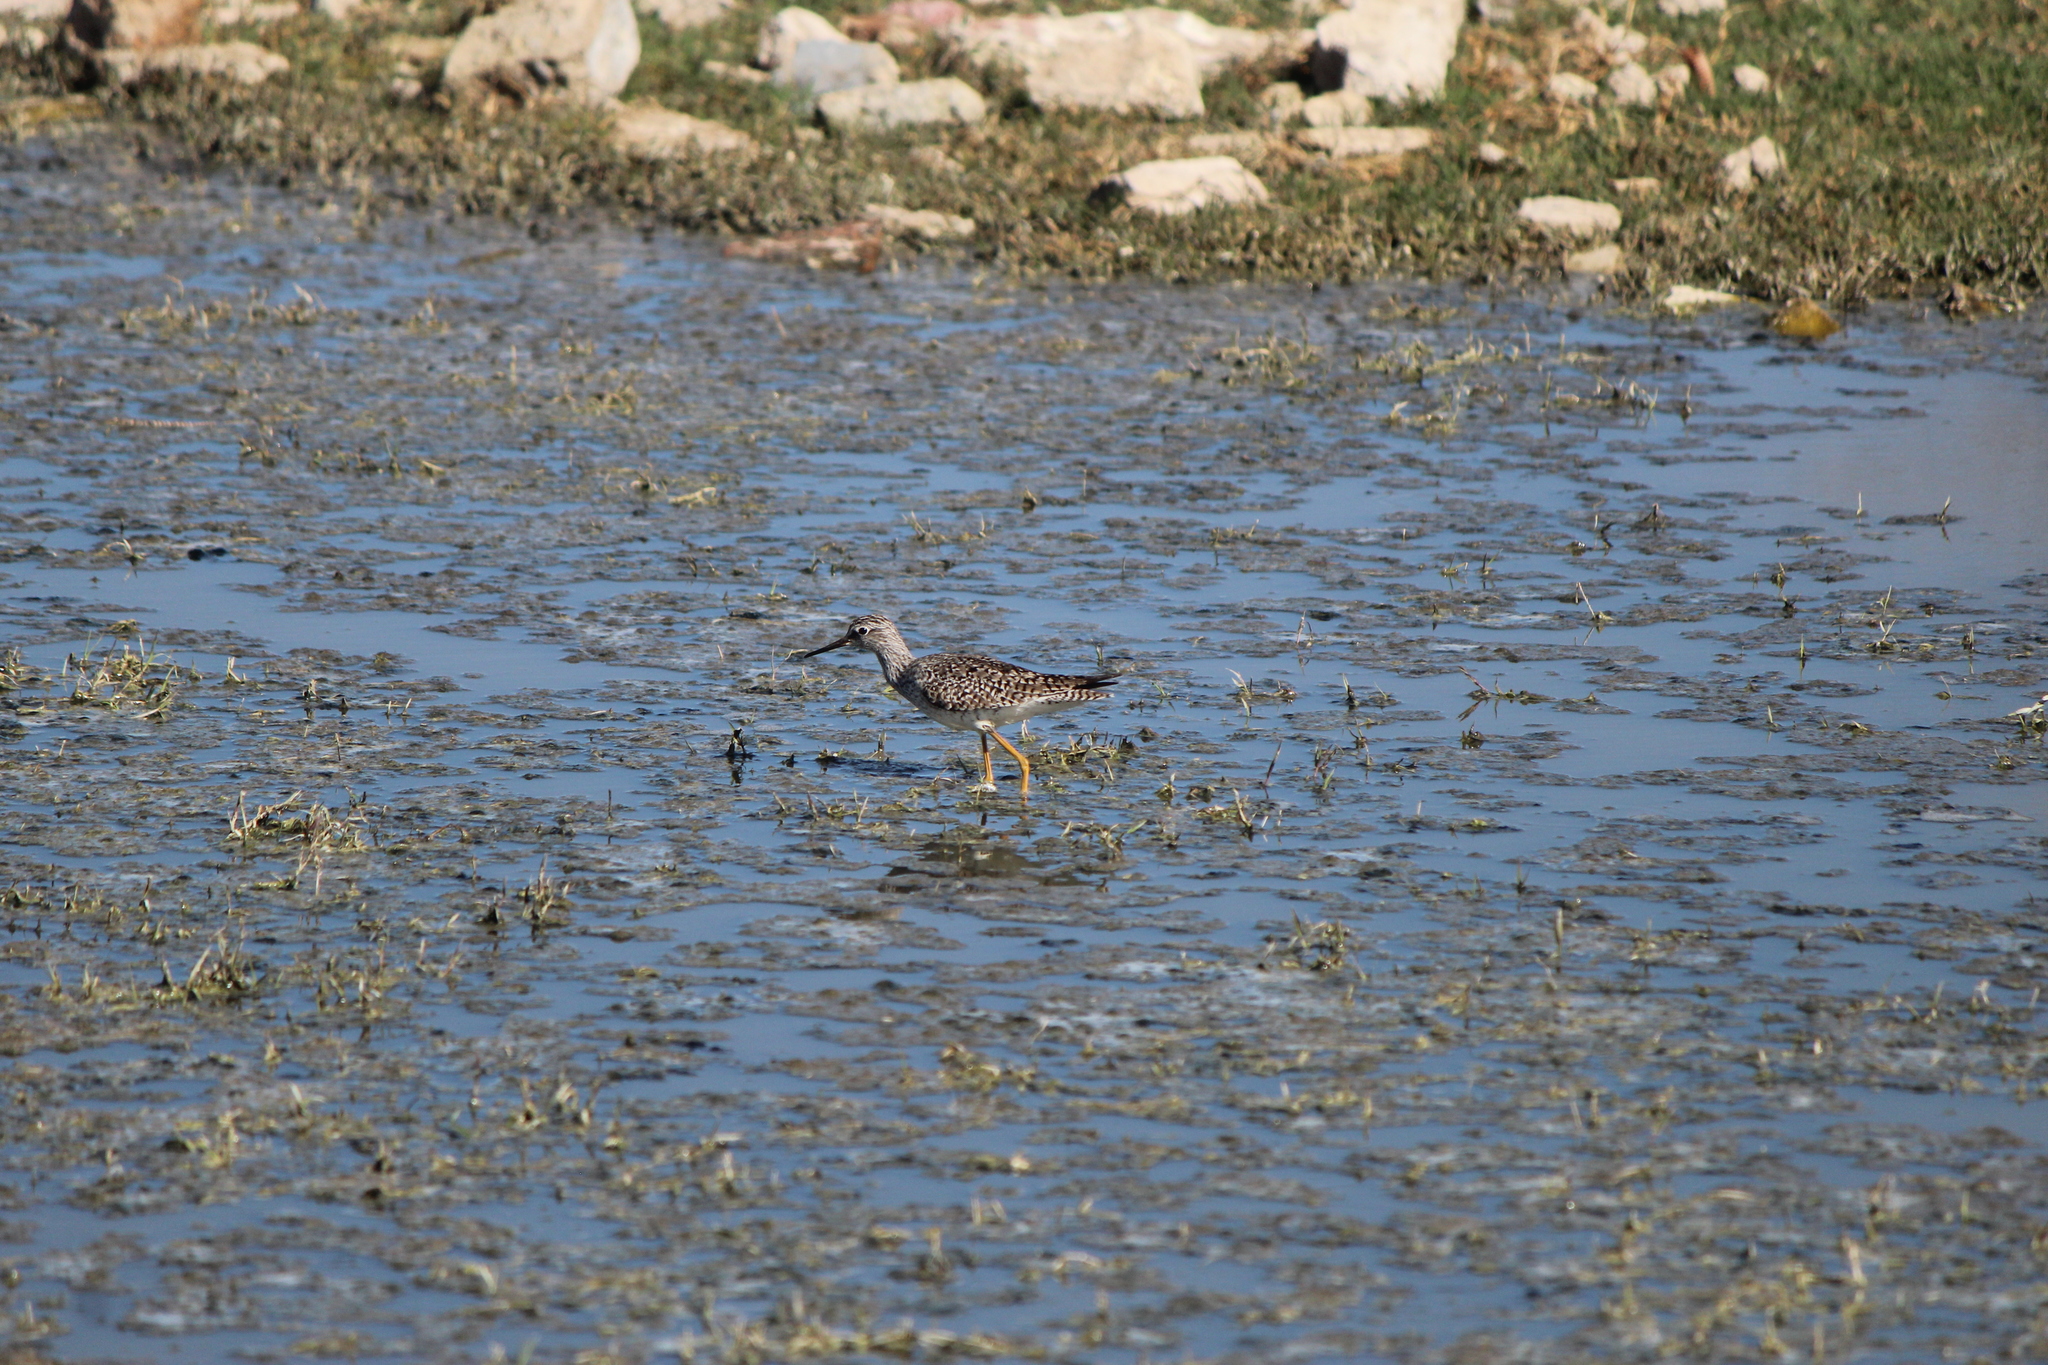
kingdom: Animalia
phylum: Chordata
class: Aves
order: Charadriiformes
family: Scolopacidae
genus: Tringa
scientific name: Tringa flavipes
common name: Lesser yellowlegs
